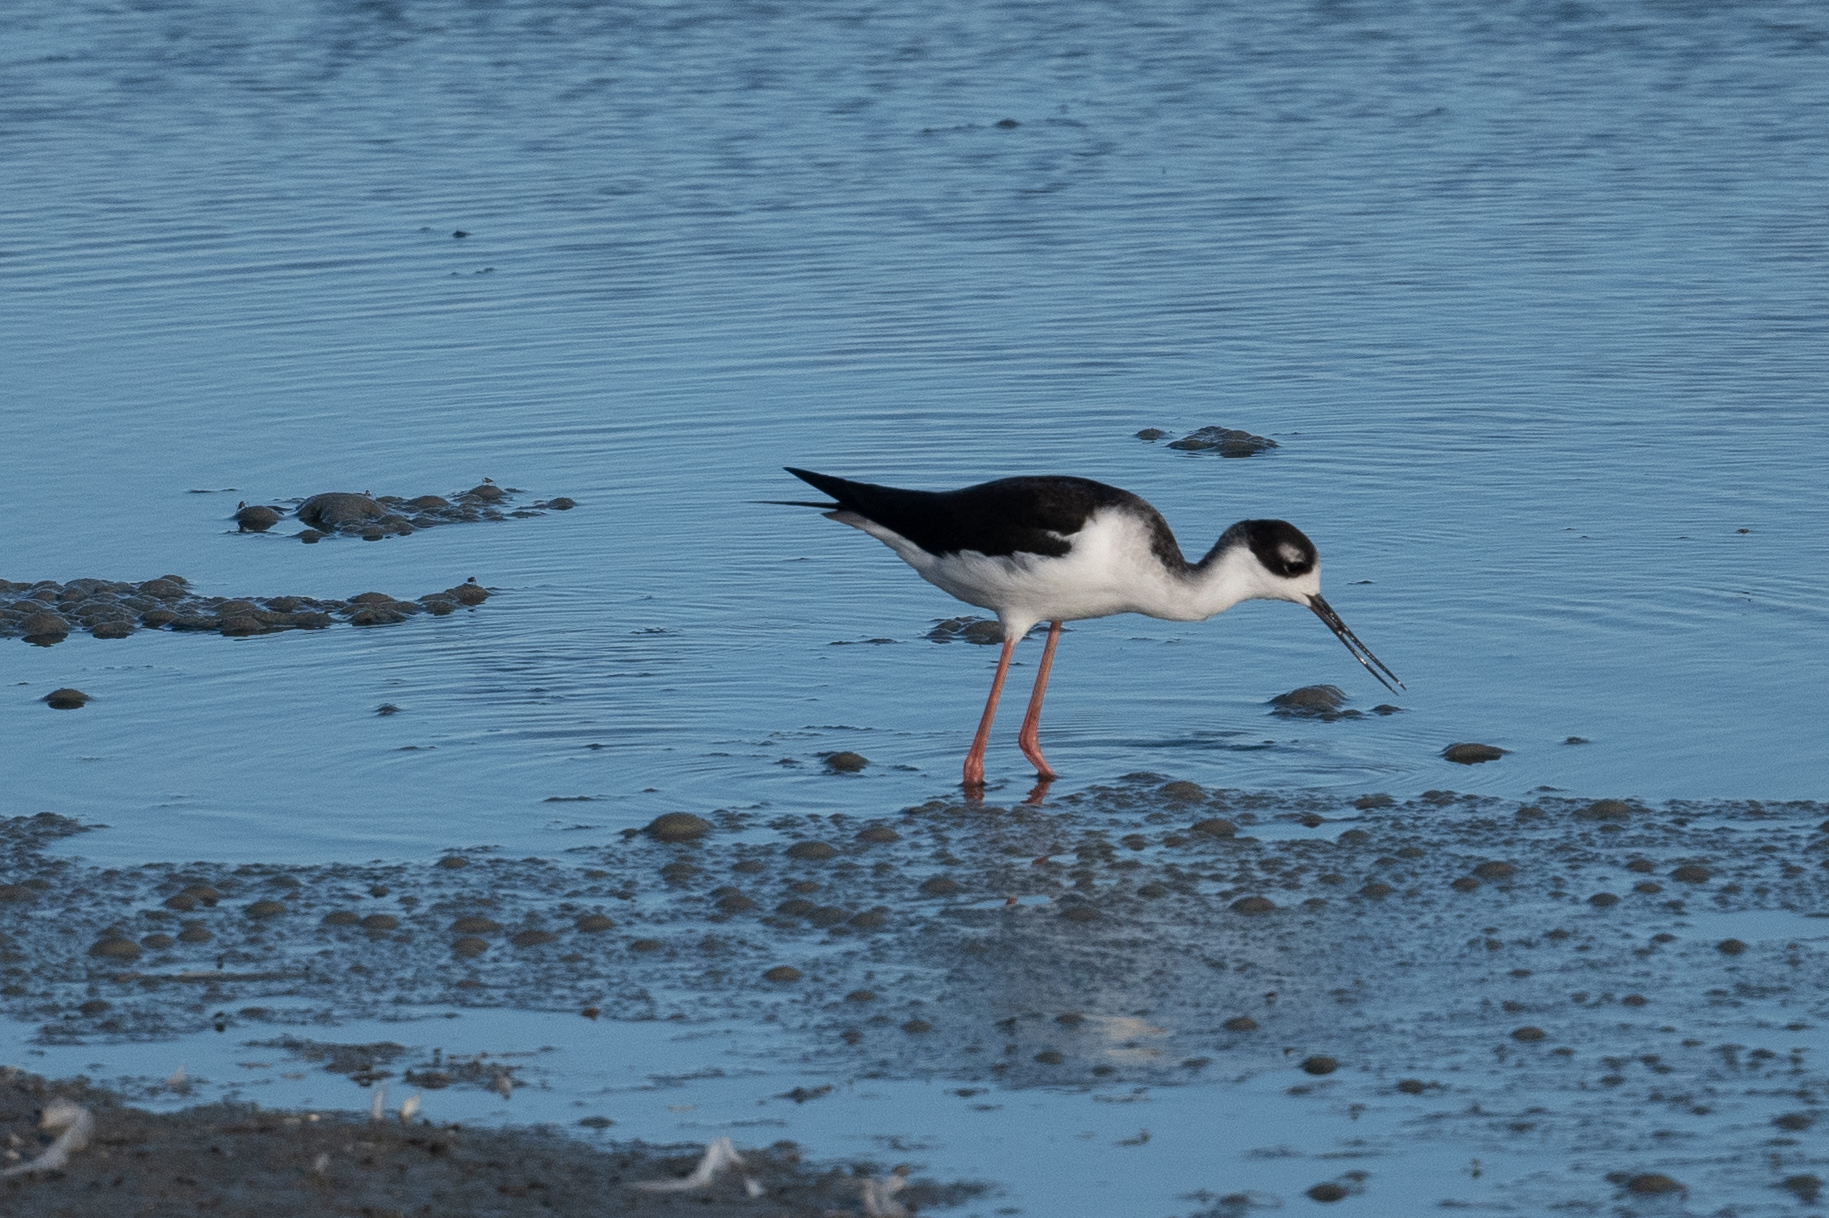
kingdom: Animalia
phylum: Chordata
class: Aves
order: Charadriiformes
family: Recurvirostridae
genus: Himantopus
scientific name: Himantopus mexicanus
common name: Black-necked stilt
